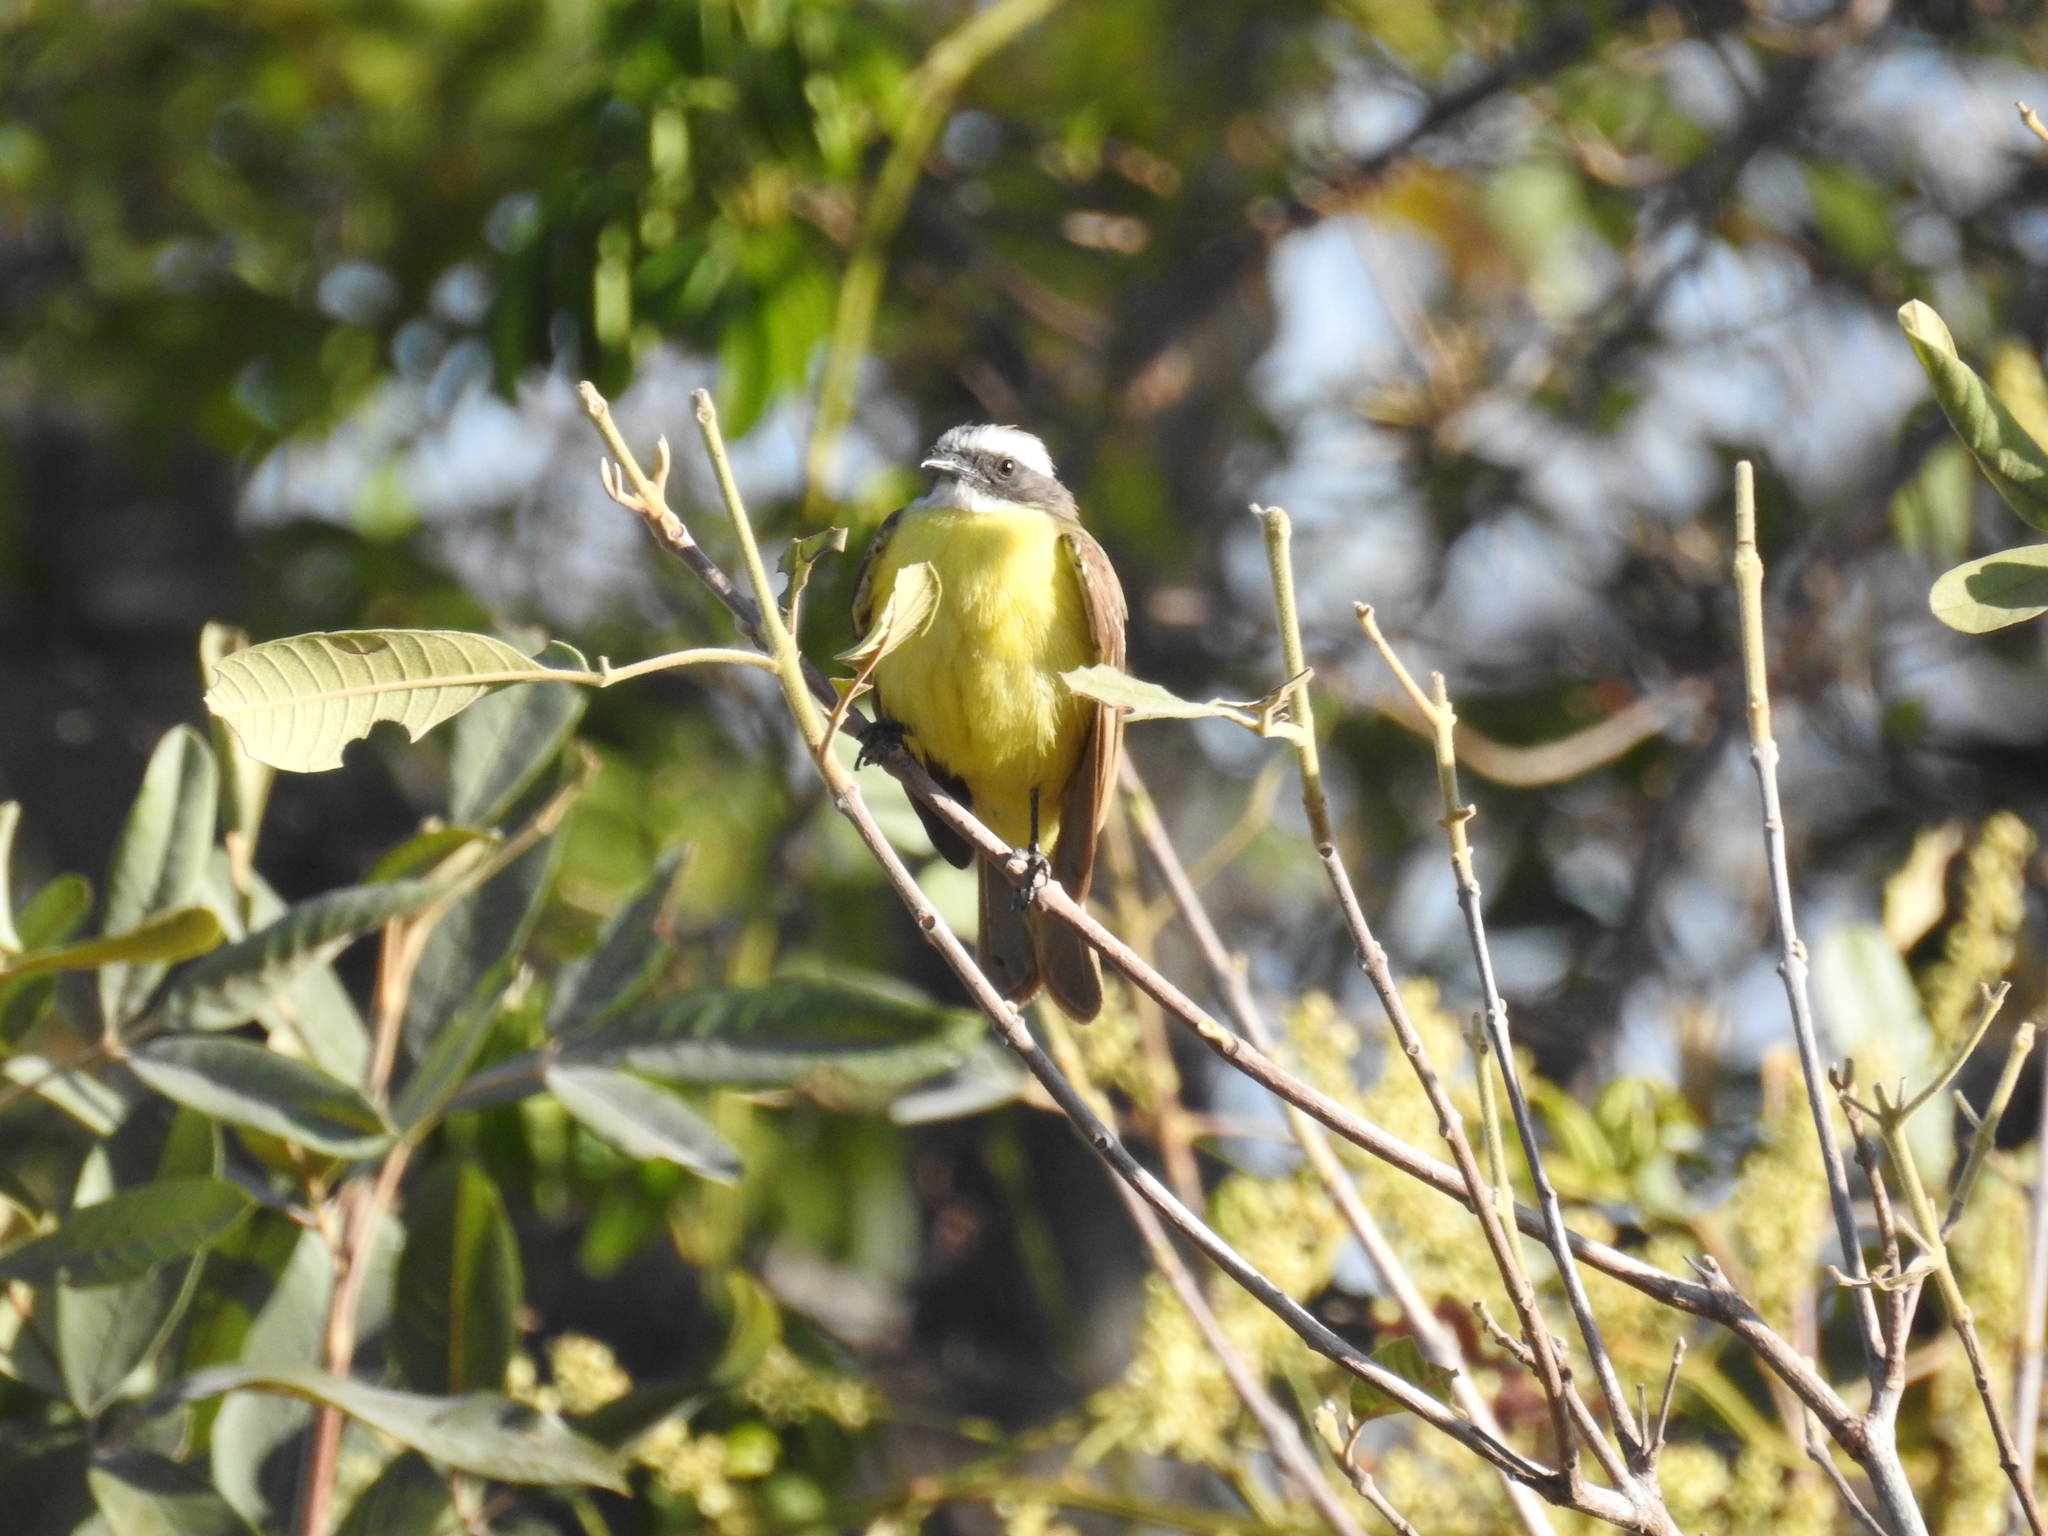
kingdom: Animalia
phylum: Chordata
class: Aves
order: Passeriformes
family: Tyrannidae
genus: Myiozetetes
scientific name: Myiozetetes similis
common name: Social flycatcher
